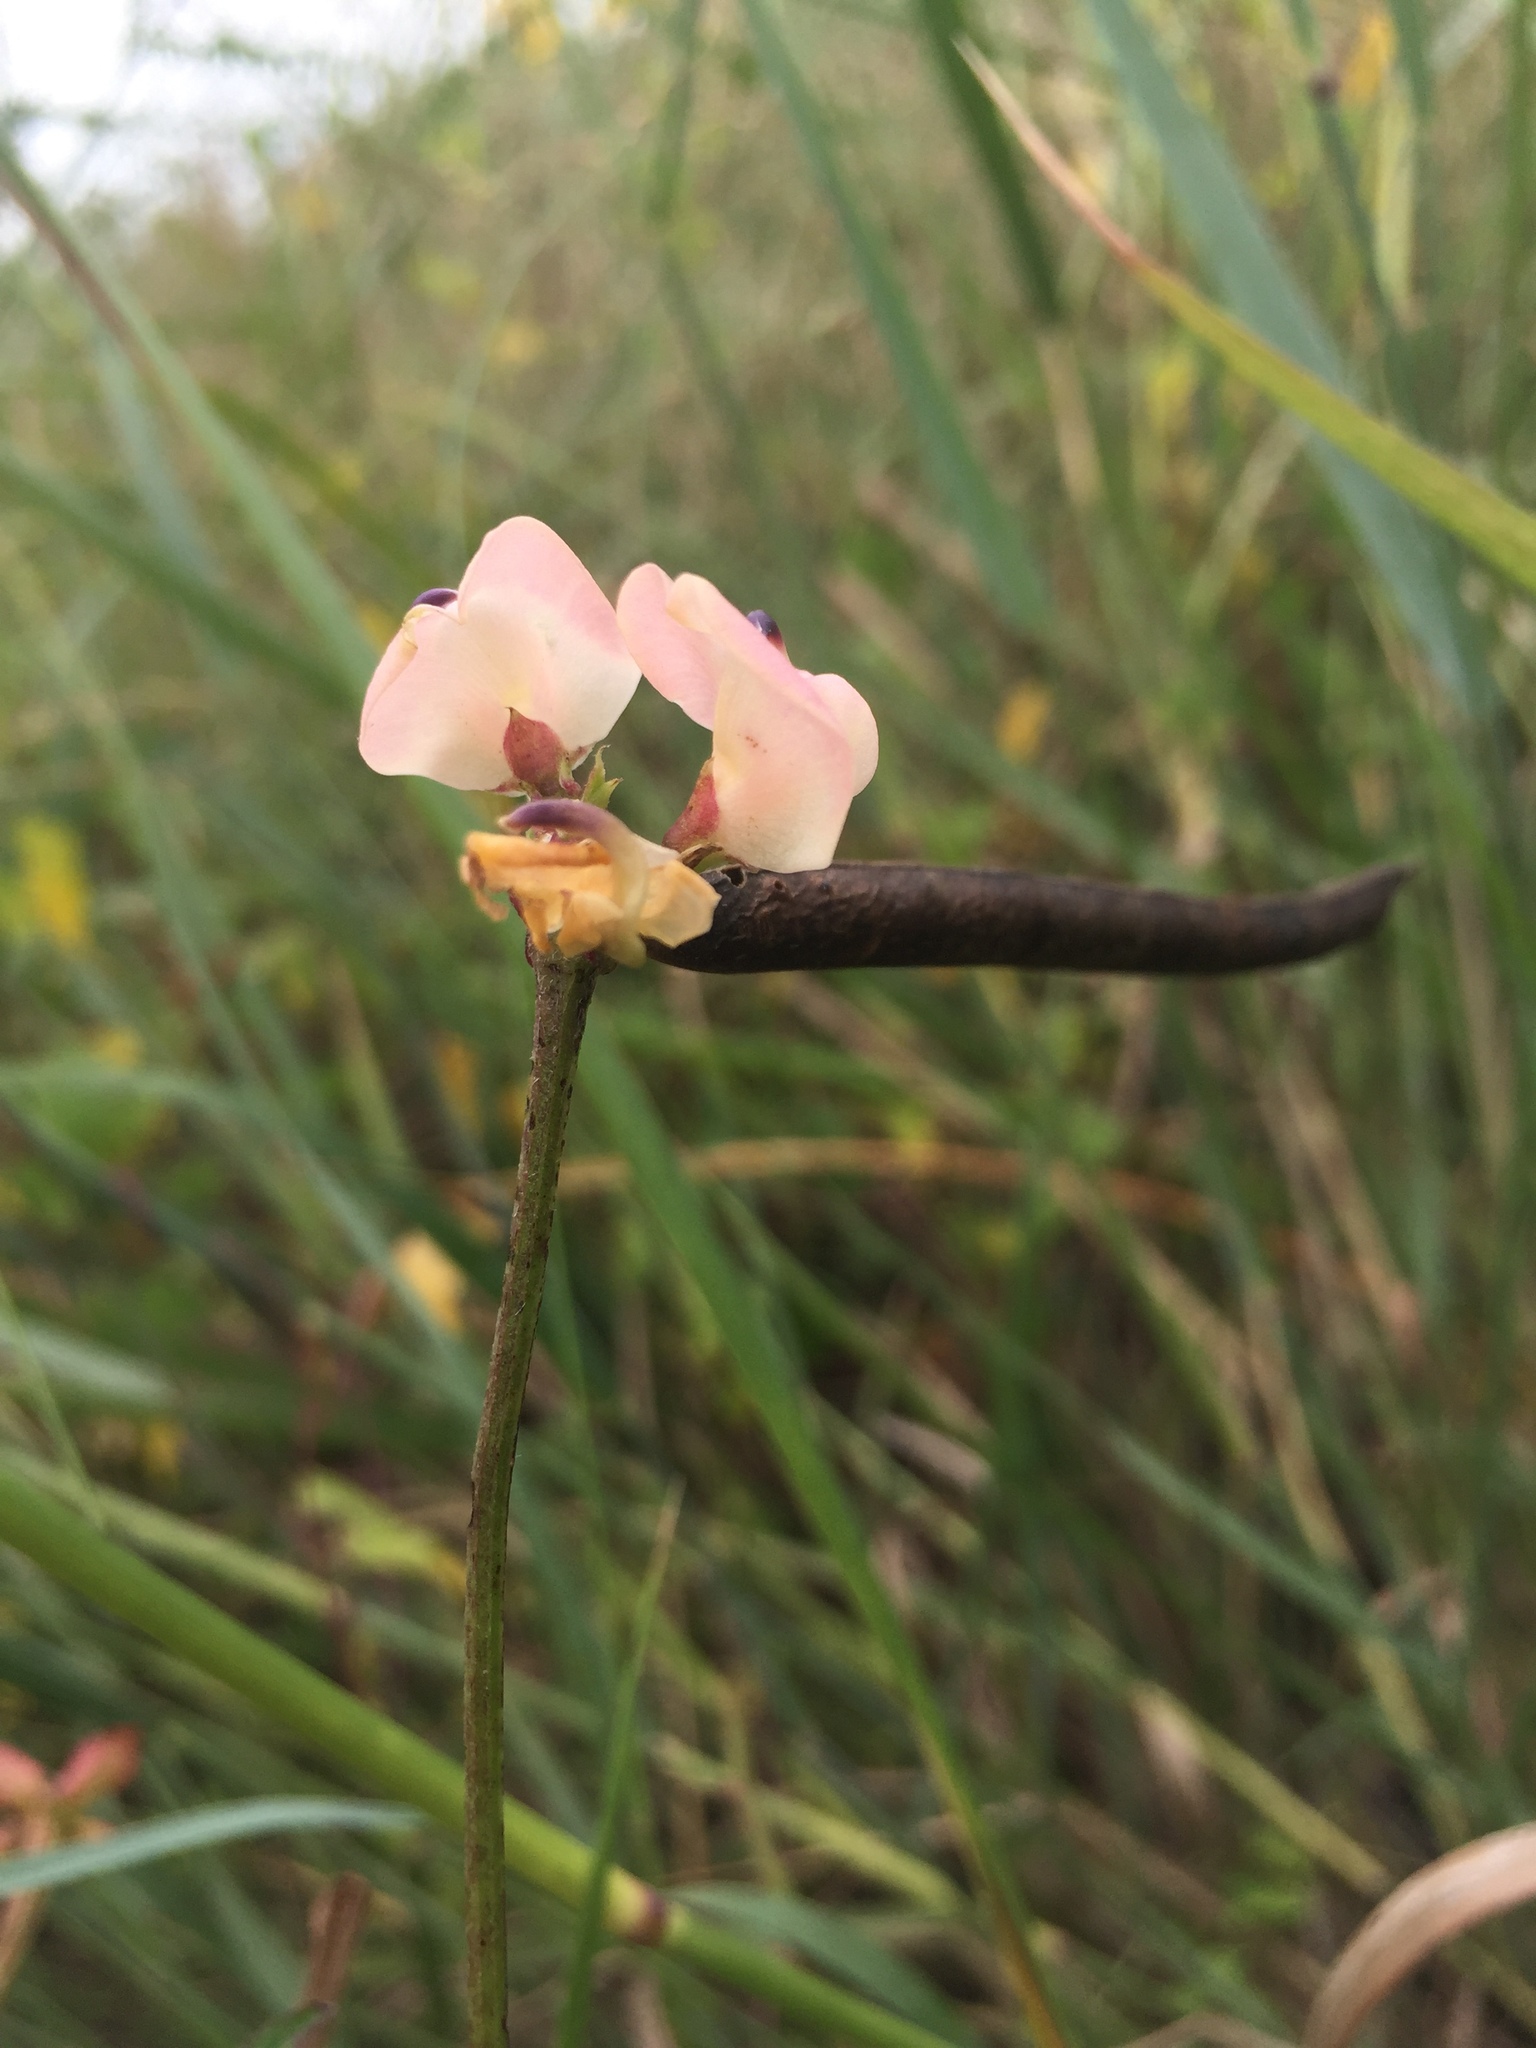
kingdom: Plantae
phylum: Tracheophyta
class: Magnoliopsida
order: Fabales
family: Fabaceae
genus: Strophostyles
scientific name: Strophostyles helvola
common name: Trailing wild bean
